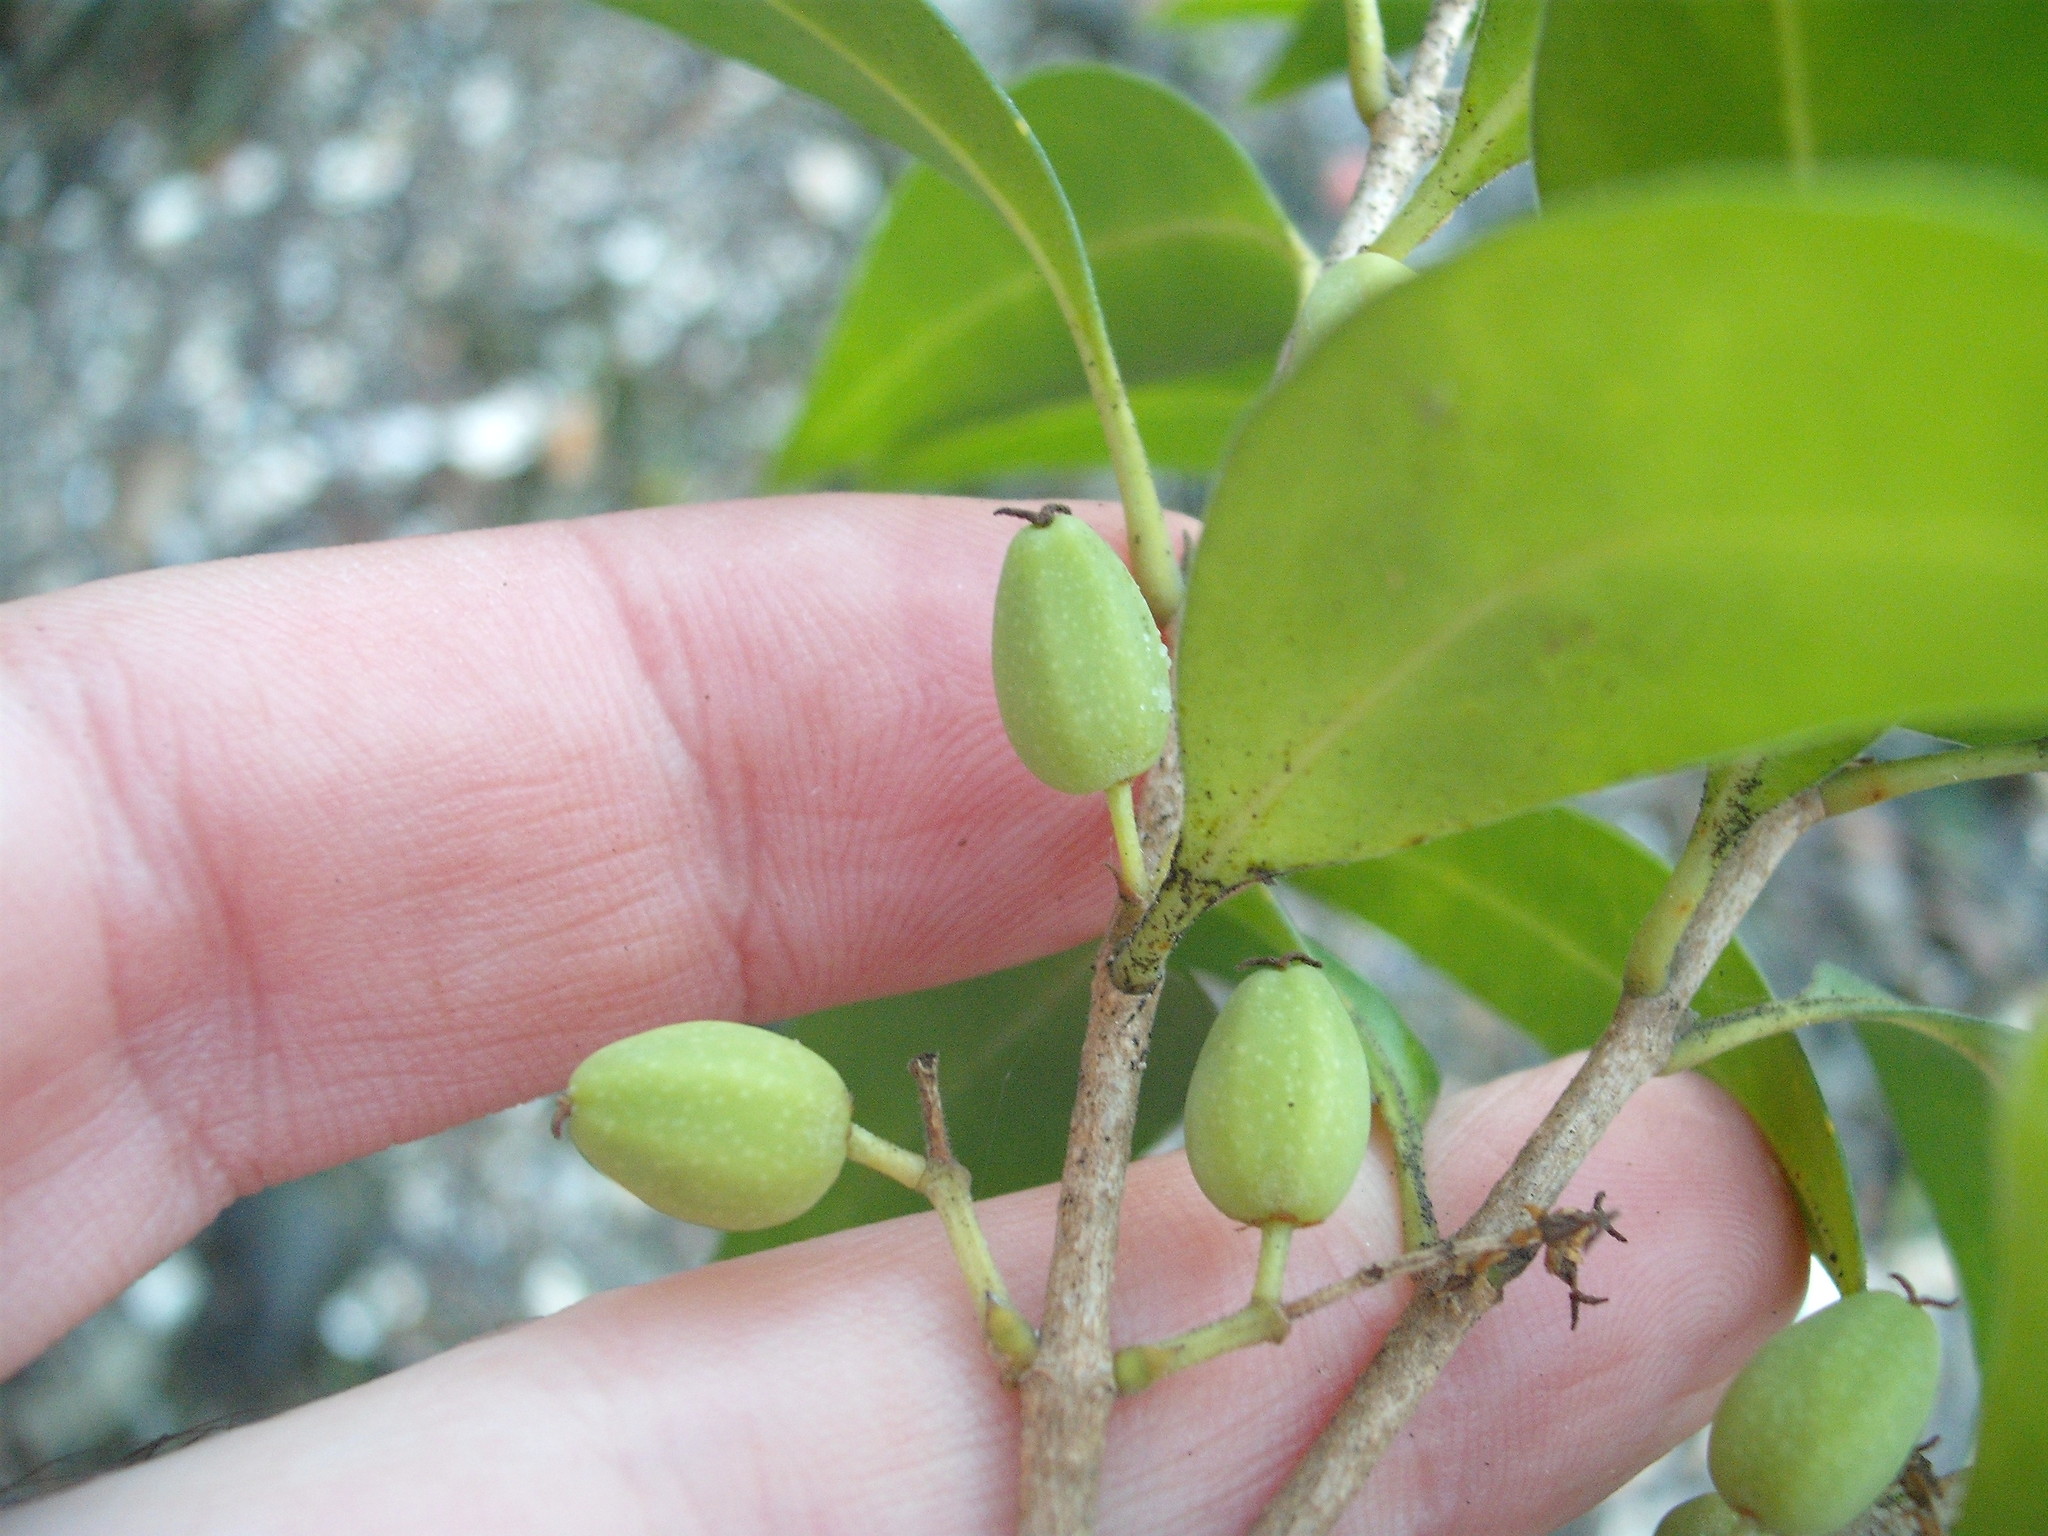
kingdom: Plantae
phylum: Tracheophyta
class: Magnoliopsida
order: Lamiales
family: Oleaceae
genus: Nestegis
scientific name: Nestegis lanceolata
